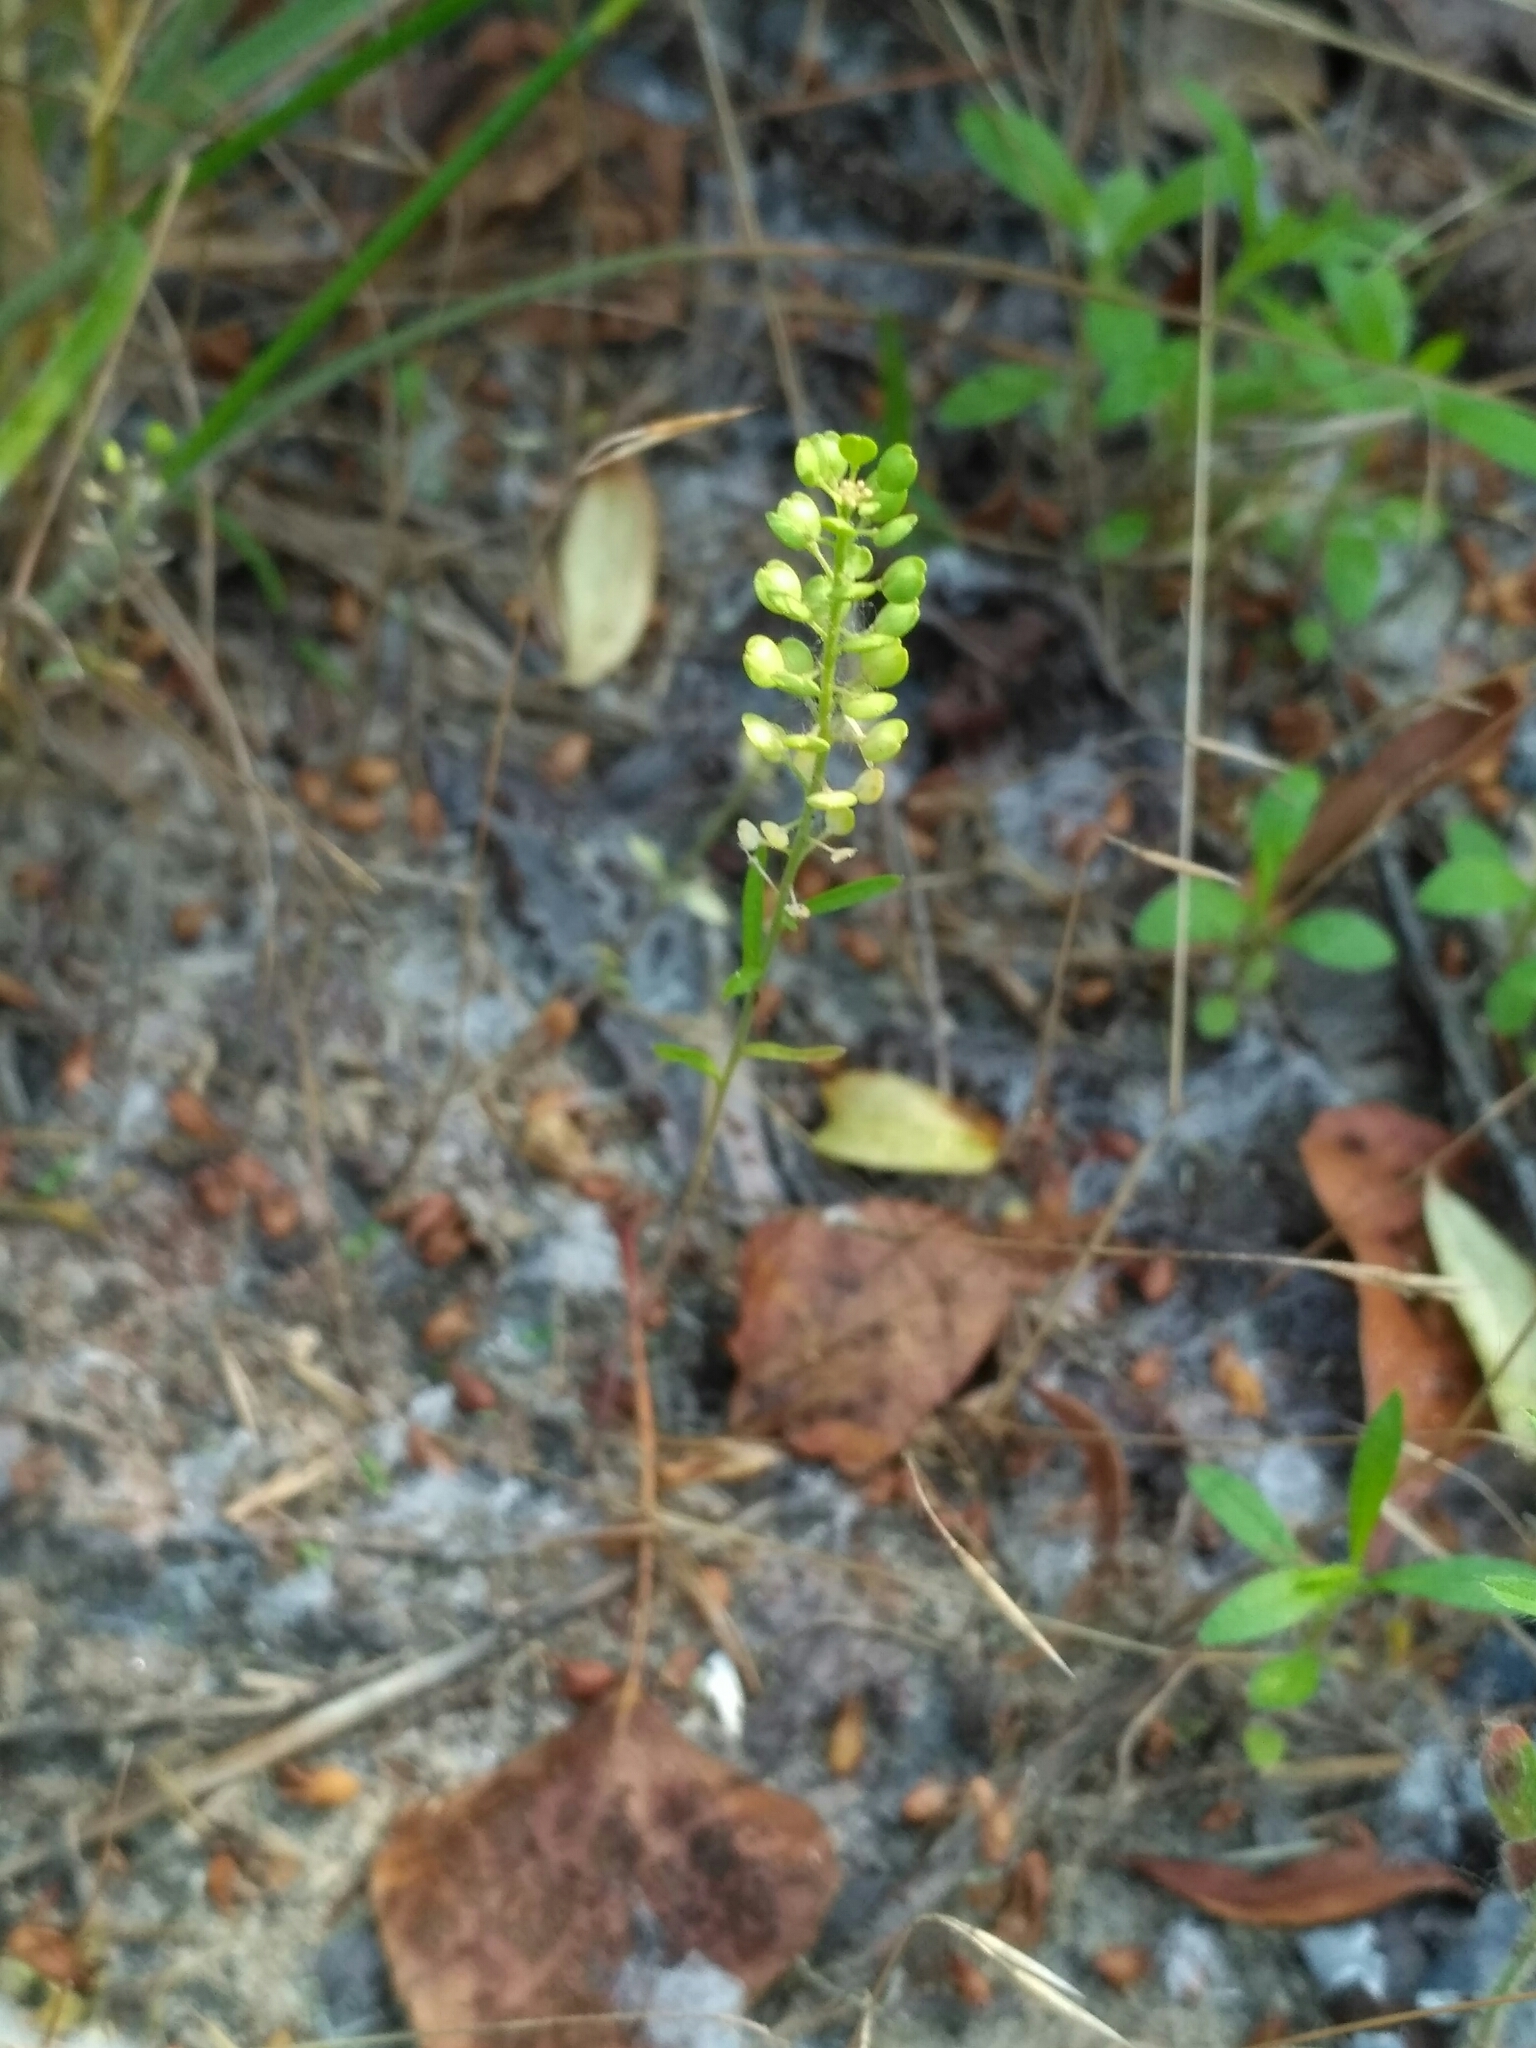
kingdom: Plantae
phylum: Tracheophyta
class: Magnoliopsida
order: Brassicales
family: Brassicaceae
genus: Lepidium
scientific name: Lepidium densiflorum
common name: Miner's pepperwort
